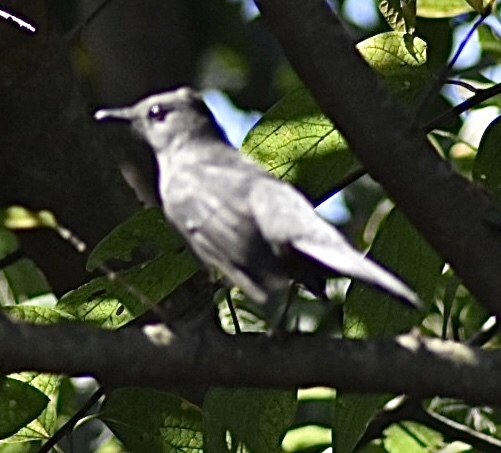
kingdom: Animalia
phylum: Chordata
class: Aves
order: Passeriformes
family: Mimidae
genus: Dumetella
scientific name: Dumetella carolinensis
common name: Gray catbird
